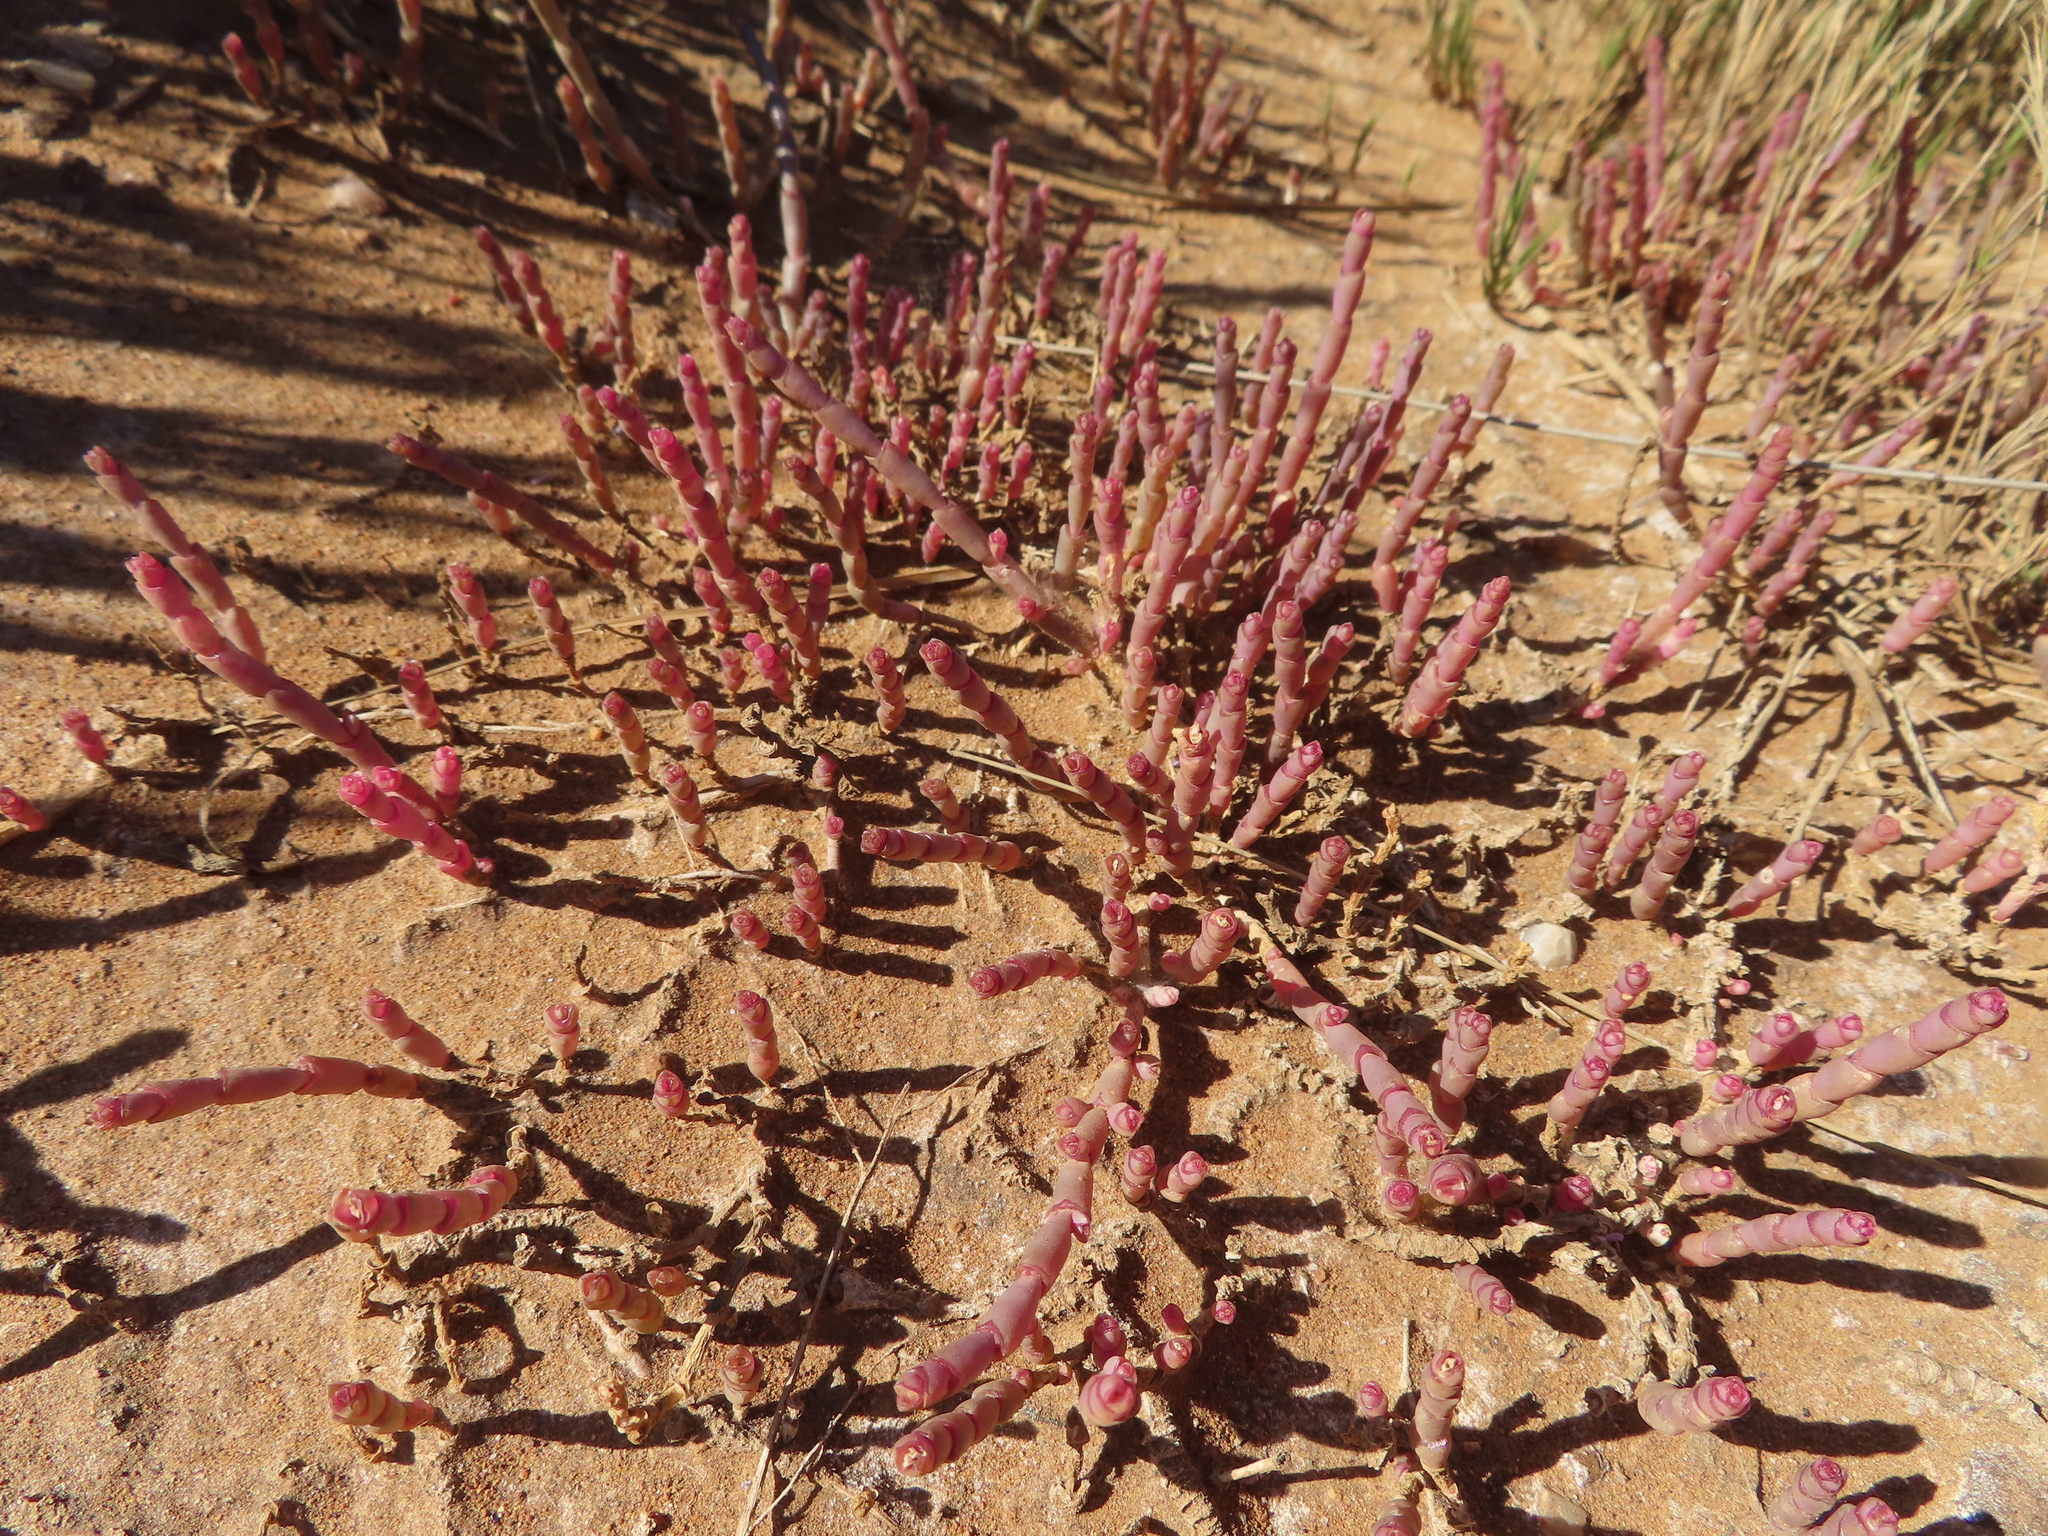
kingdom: Plantae
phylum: Tracheophyta
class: Magnoliopsida
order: Caryophyllales
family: Amaranthaceae
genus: Salicornia
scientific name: Salicornia natalensis
